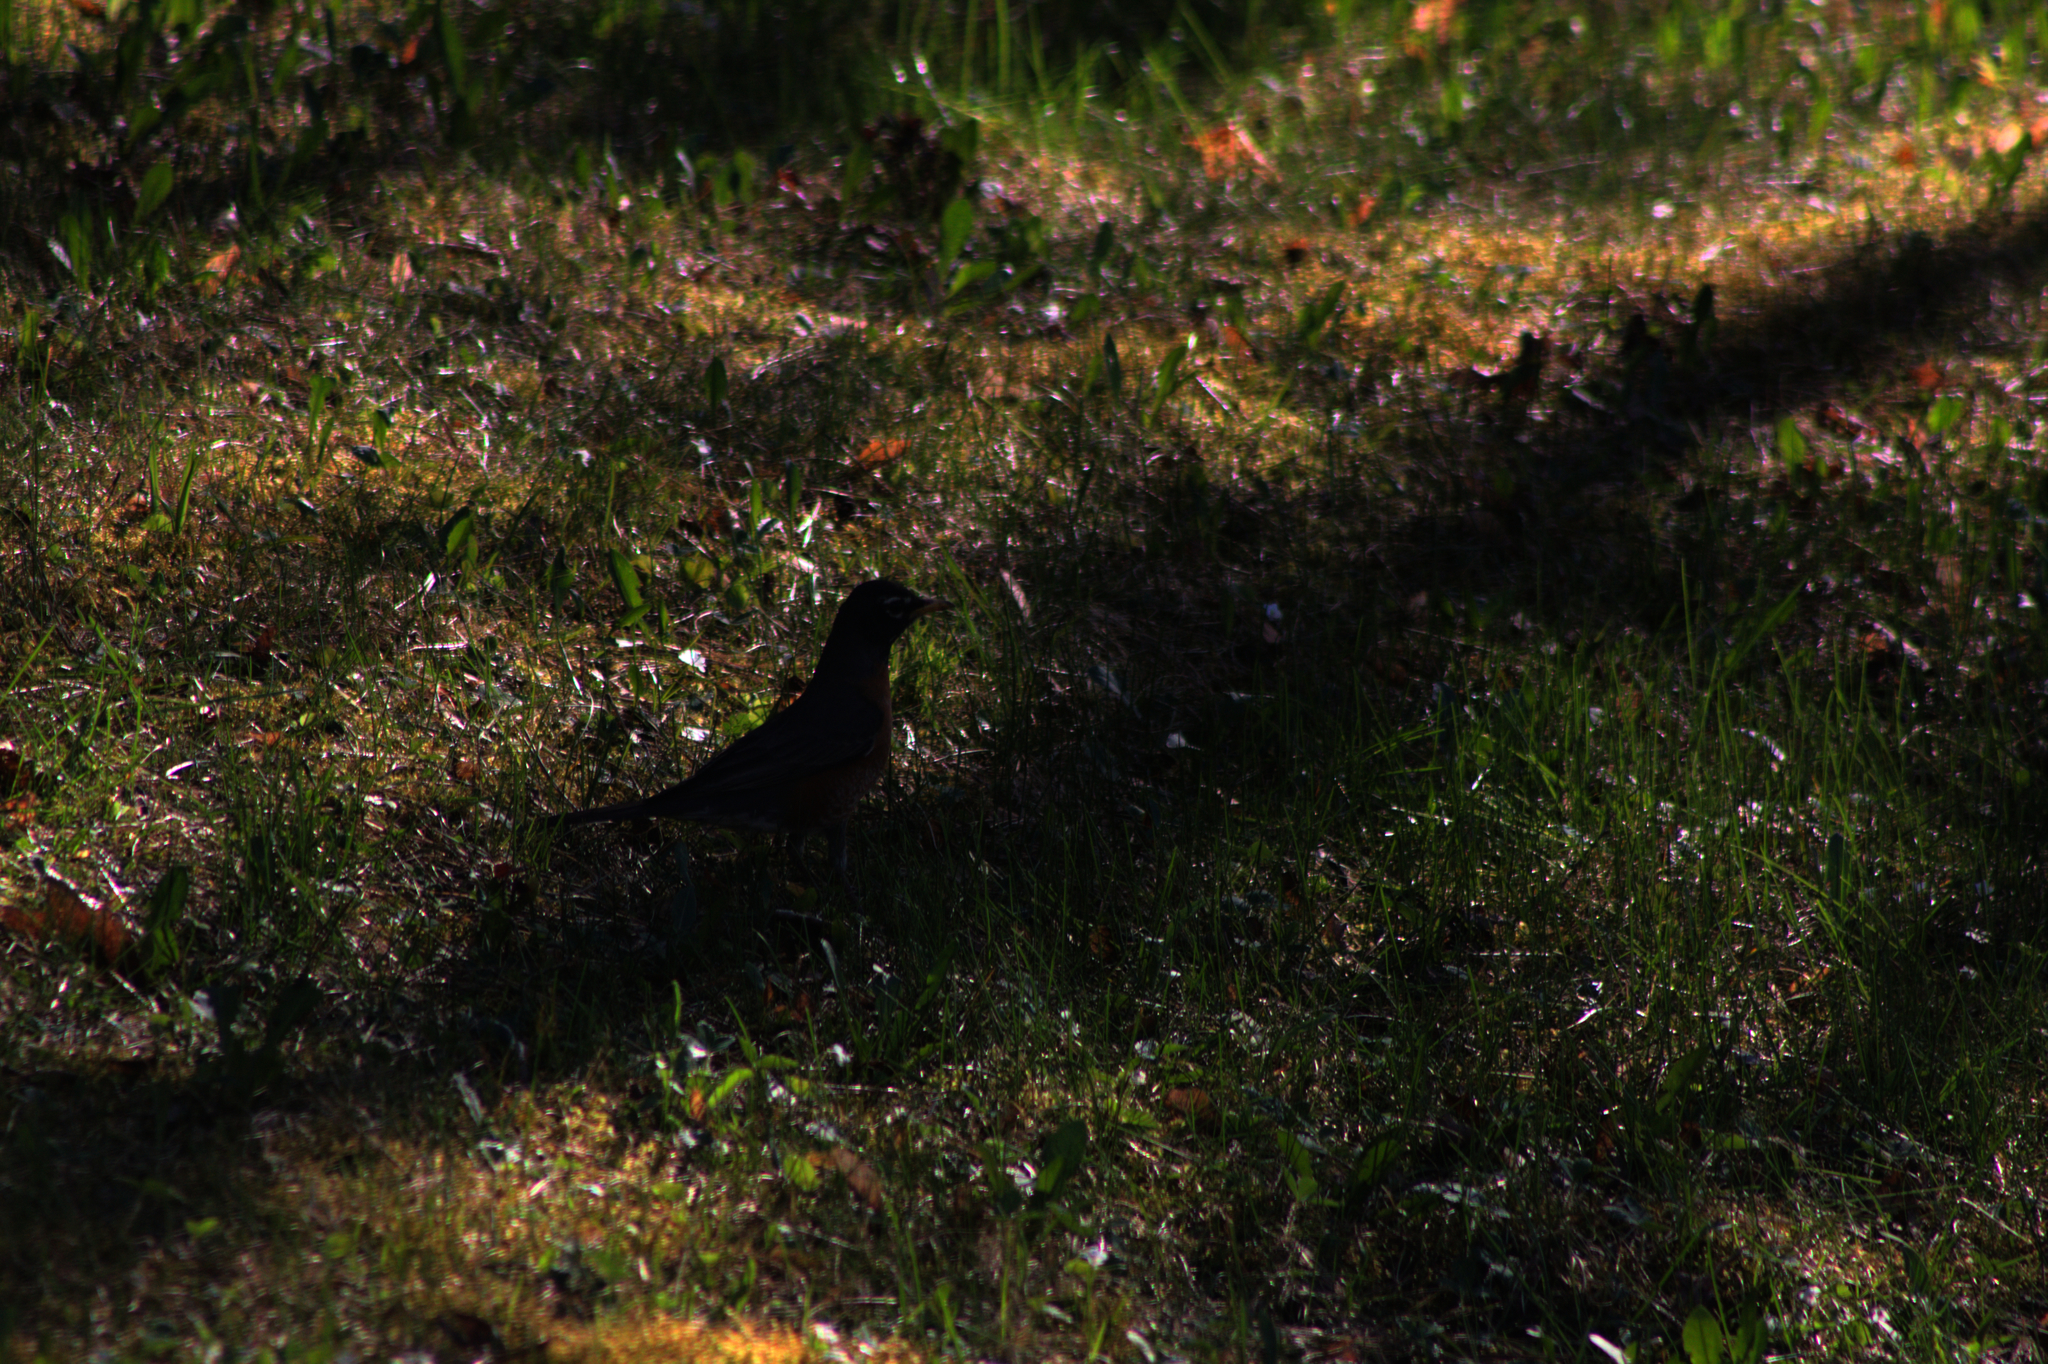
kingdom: Animalia
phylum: Chordata
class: Aves
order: Passeriformes
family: Turdidae
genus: Turdus
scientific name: Turdus migratorius
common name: American robin
